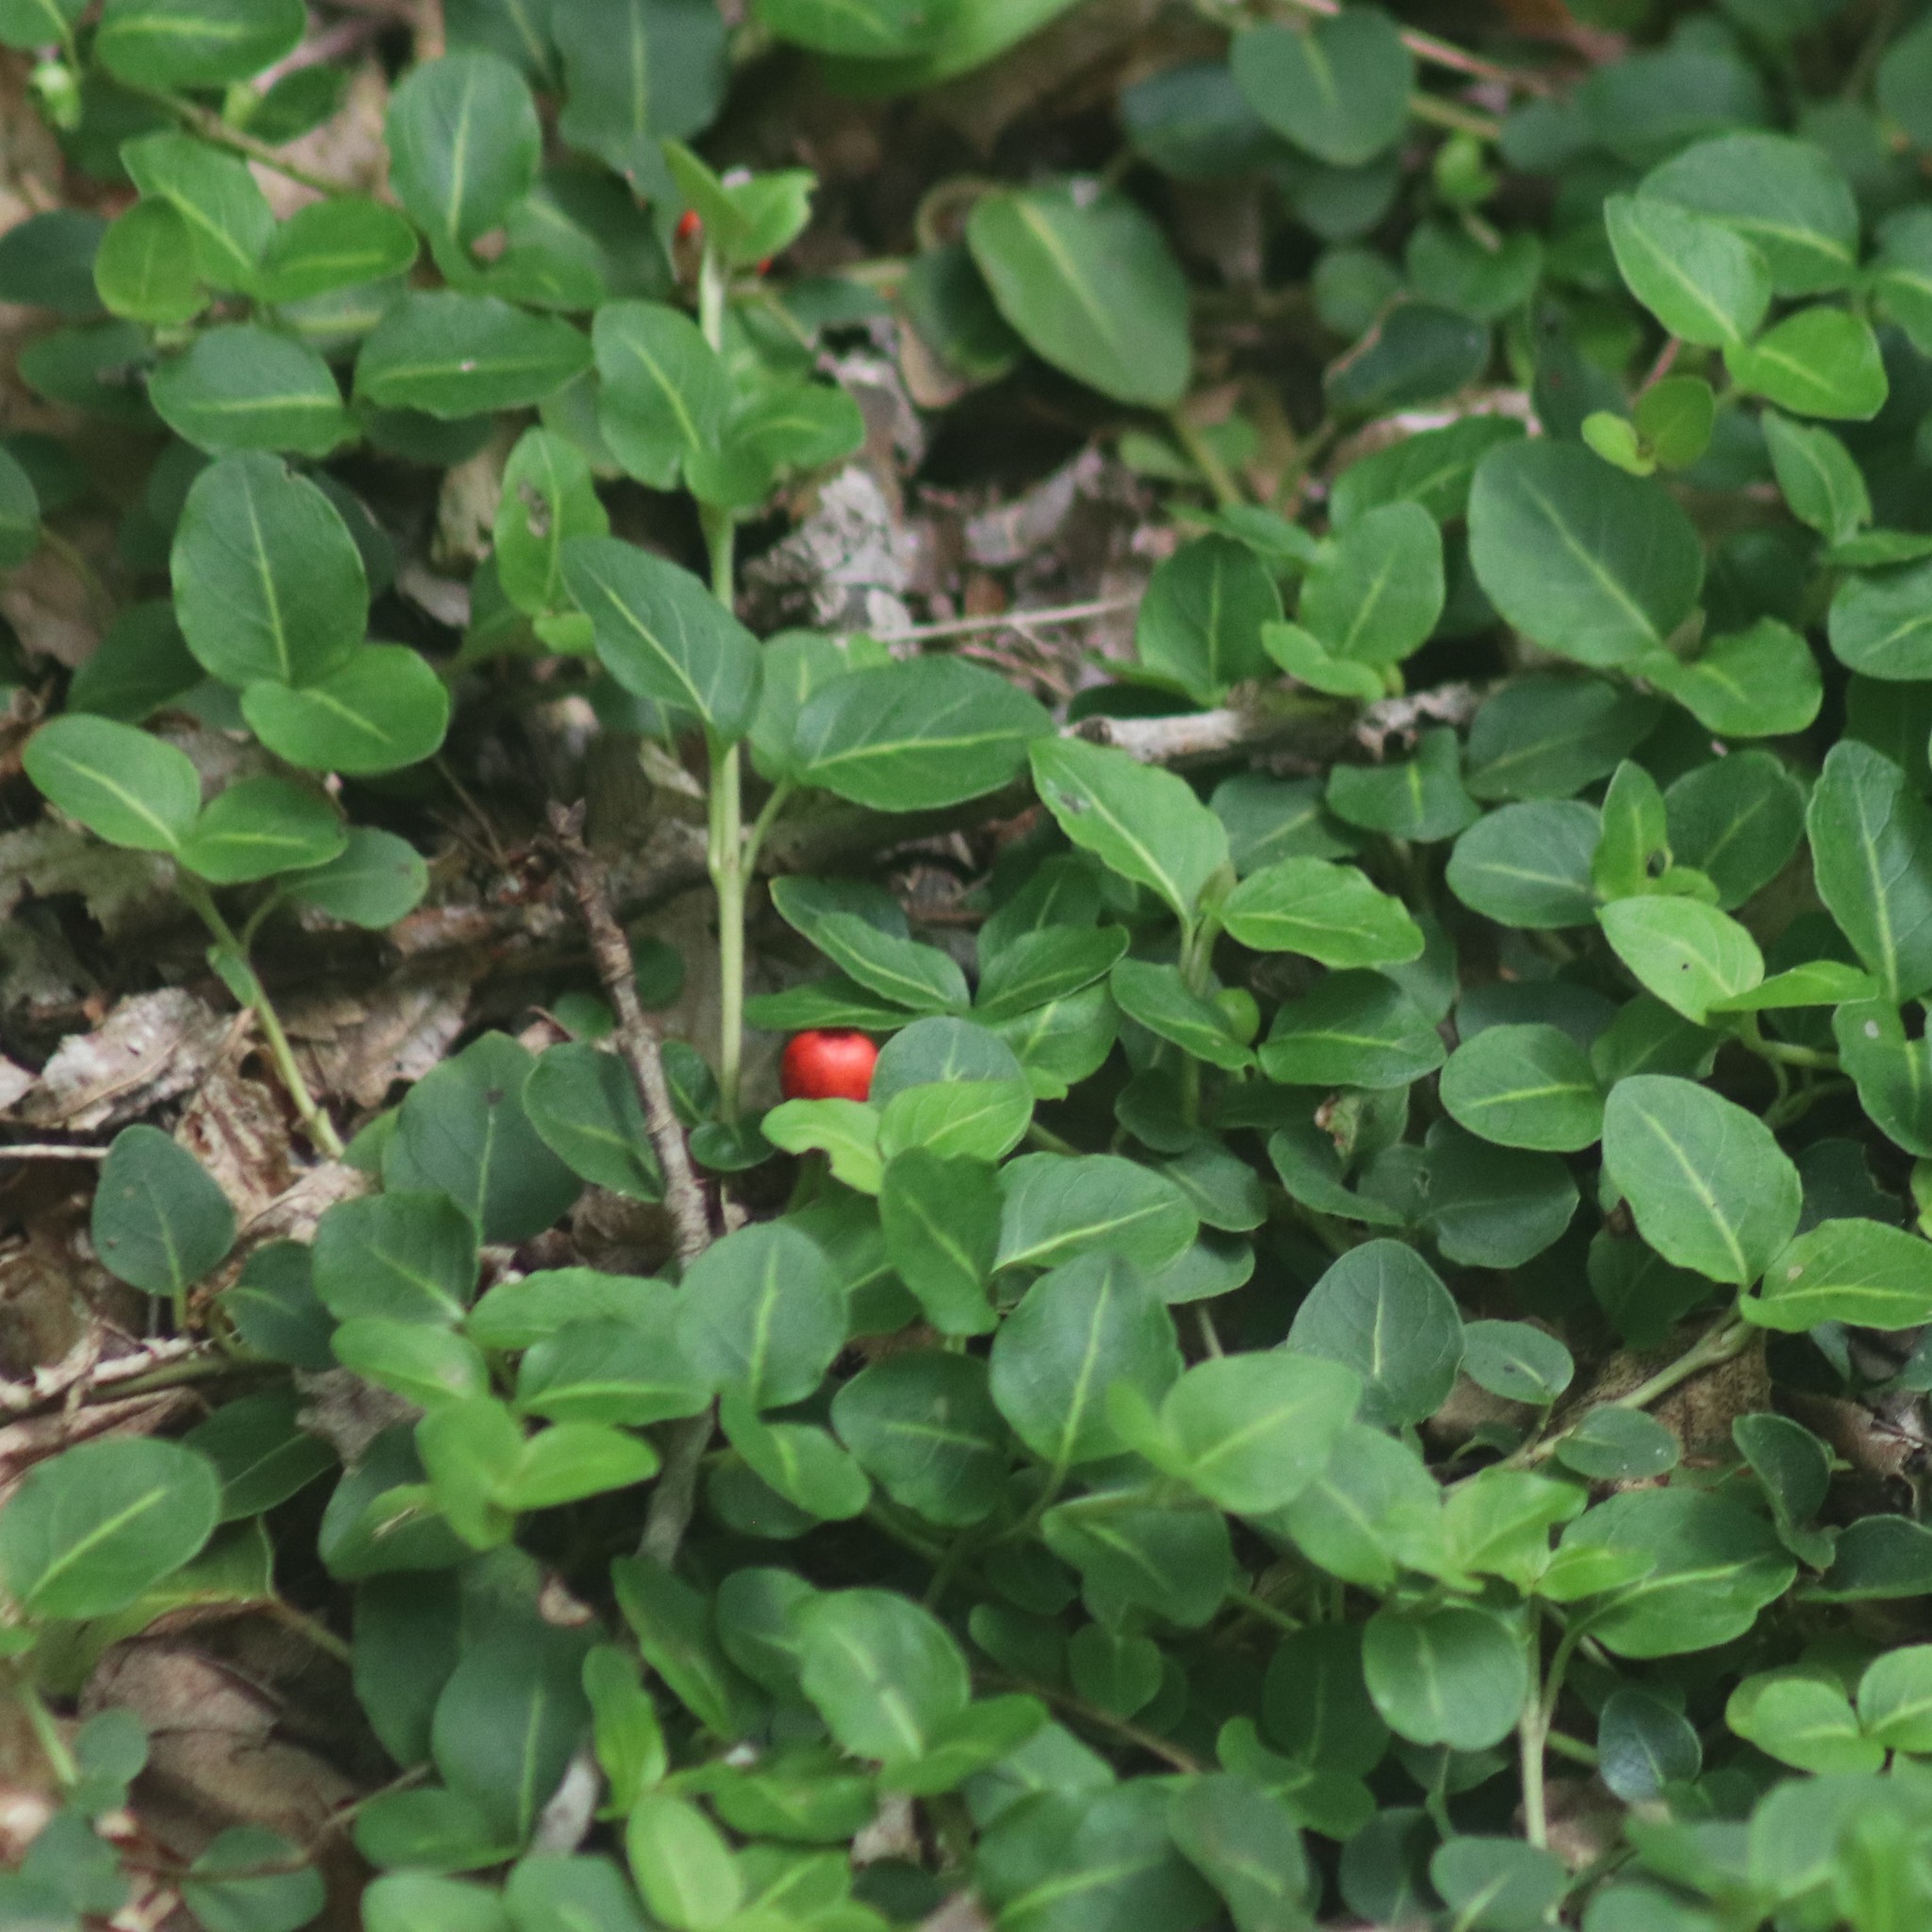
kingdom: Plantae
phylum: Tracheophyta
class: Magnoliopsida
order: Gentianales
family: Rubiaceae
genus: Mitchella
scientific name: Mitchella repens
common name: Partridge-berry
